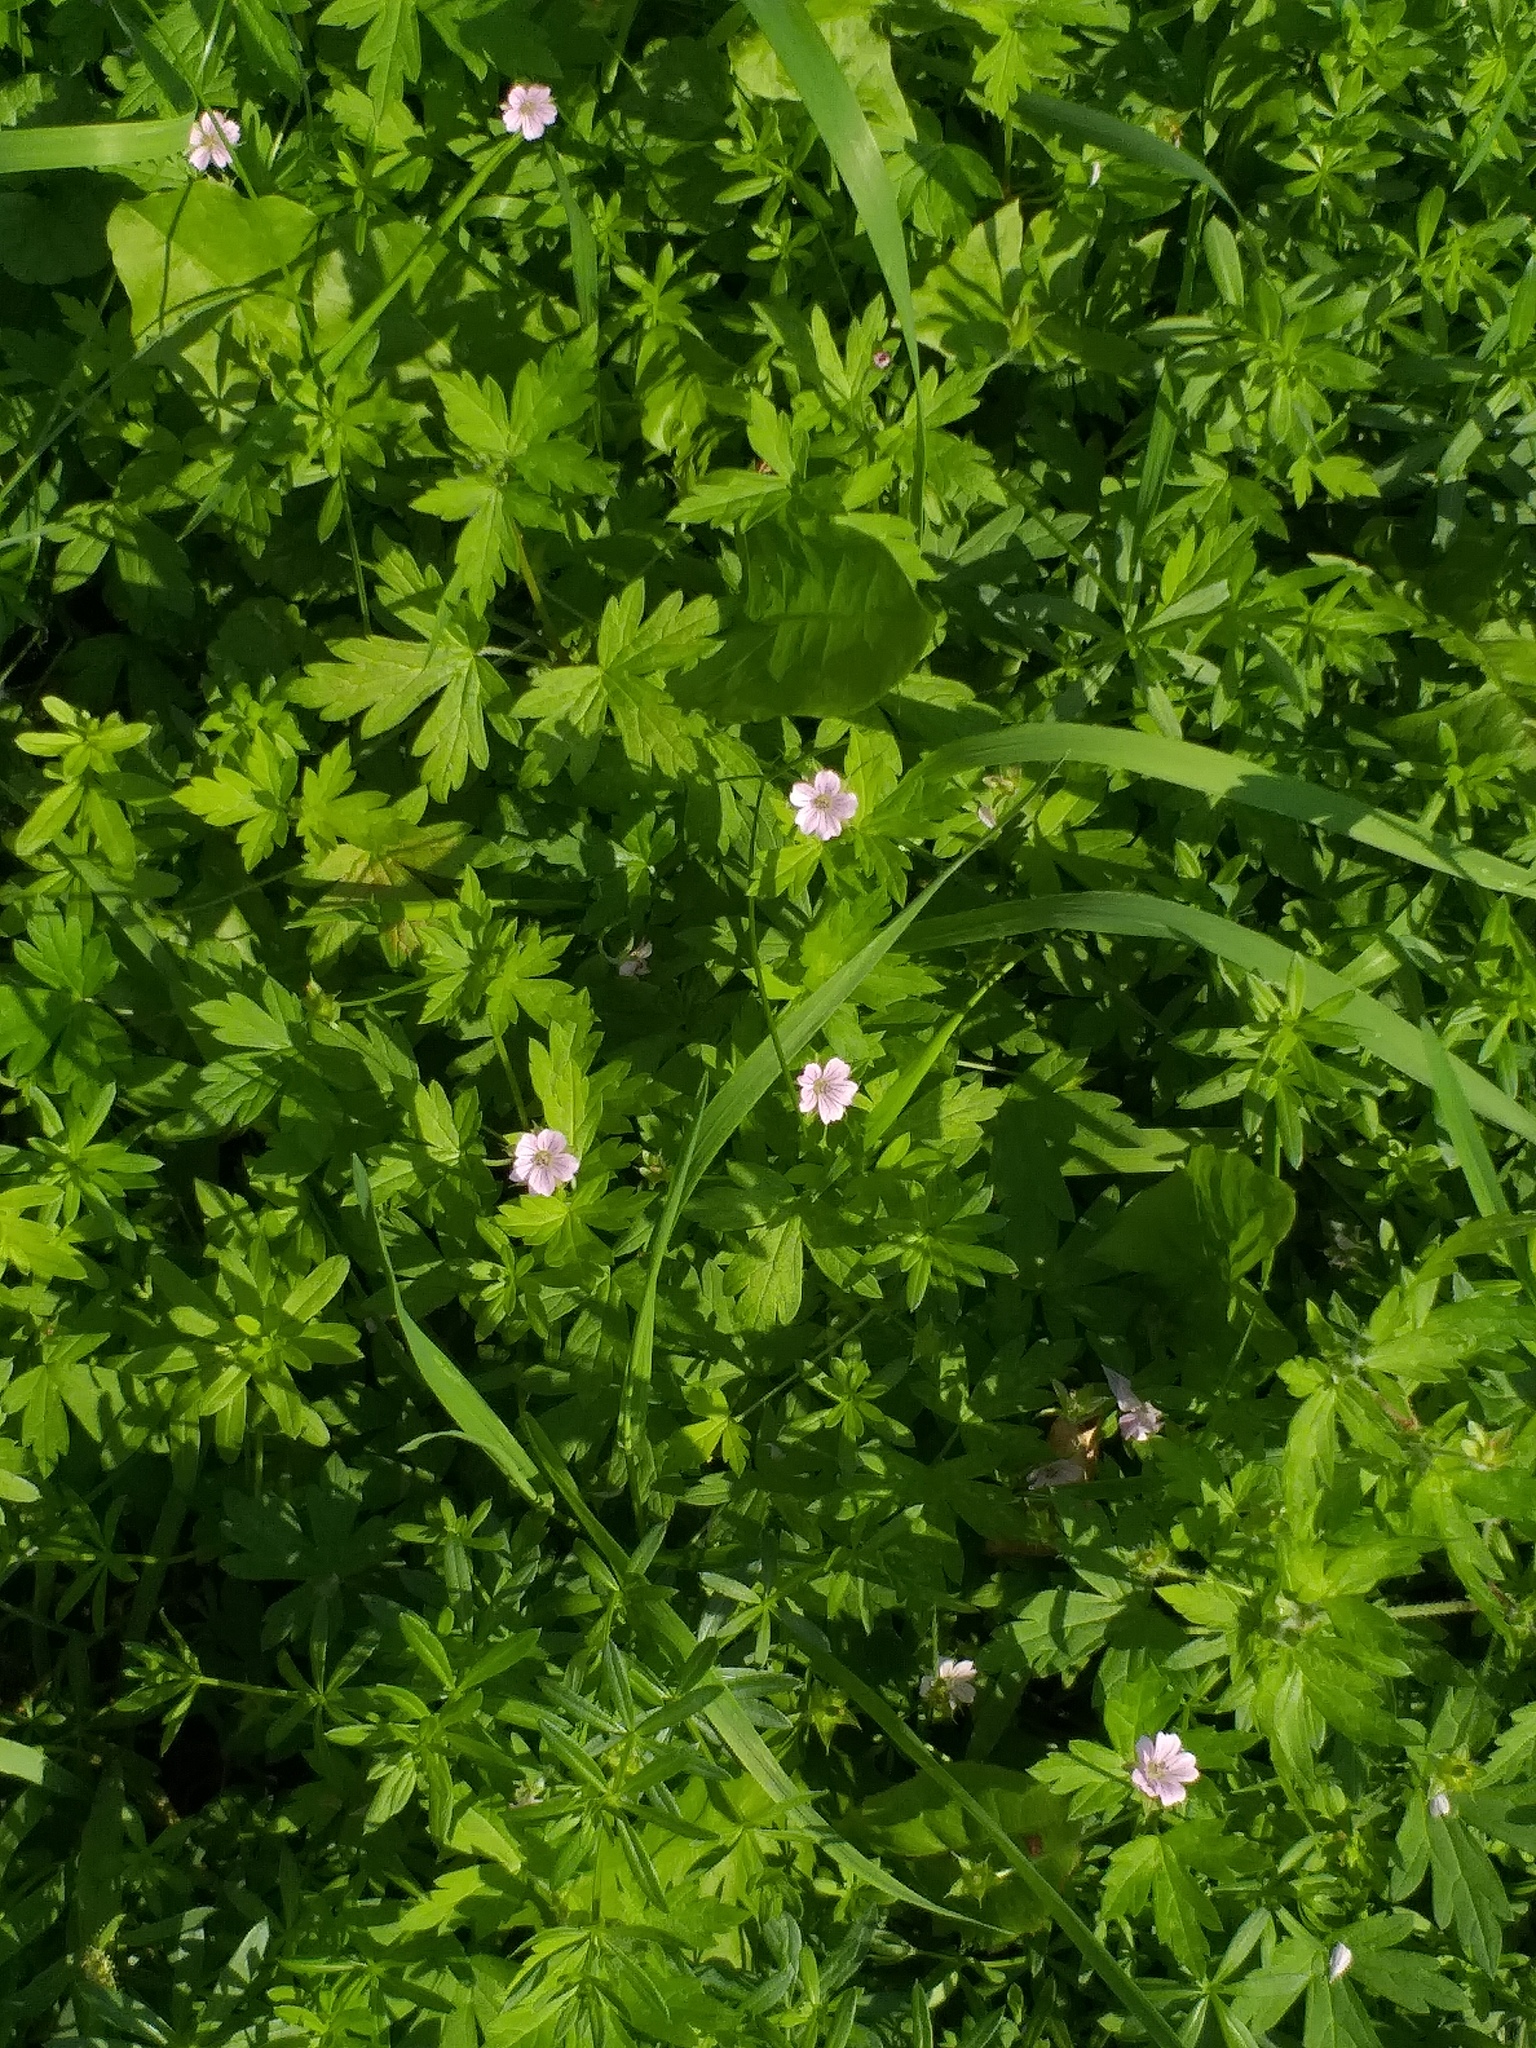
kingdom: Plantae
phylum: Tracheophyta
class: Magnoliopsida
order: Geraniales
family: Geraniaceae
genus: Geranium
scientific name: Geranium sibiricum
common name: Siberian crane's-bill
